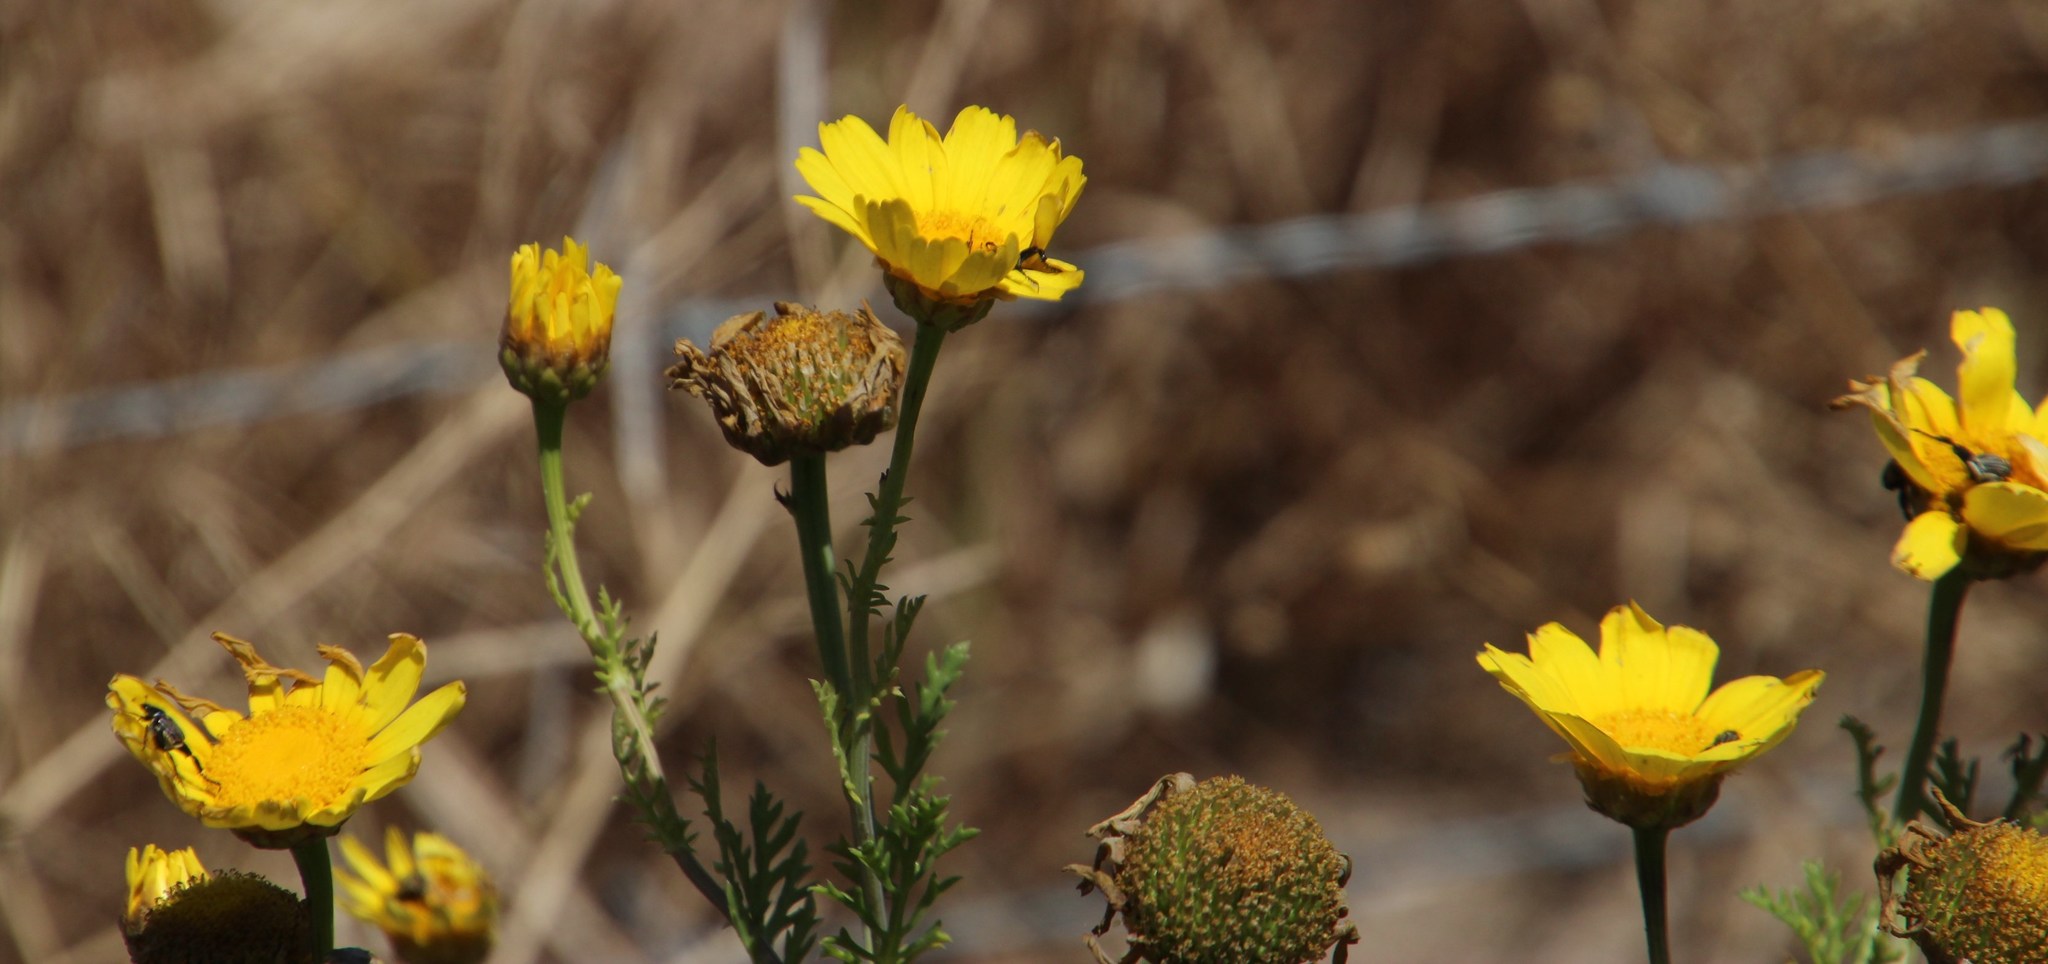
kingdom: Plantae
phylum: Tracheophyta
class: Magnoliopsida
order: Asterales
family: Asteraceae
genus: Glebionis
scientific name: Glebionis coronaria
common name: Crowndaisy
